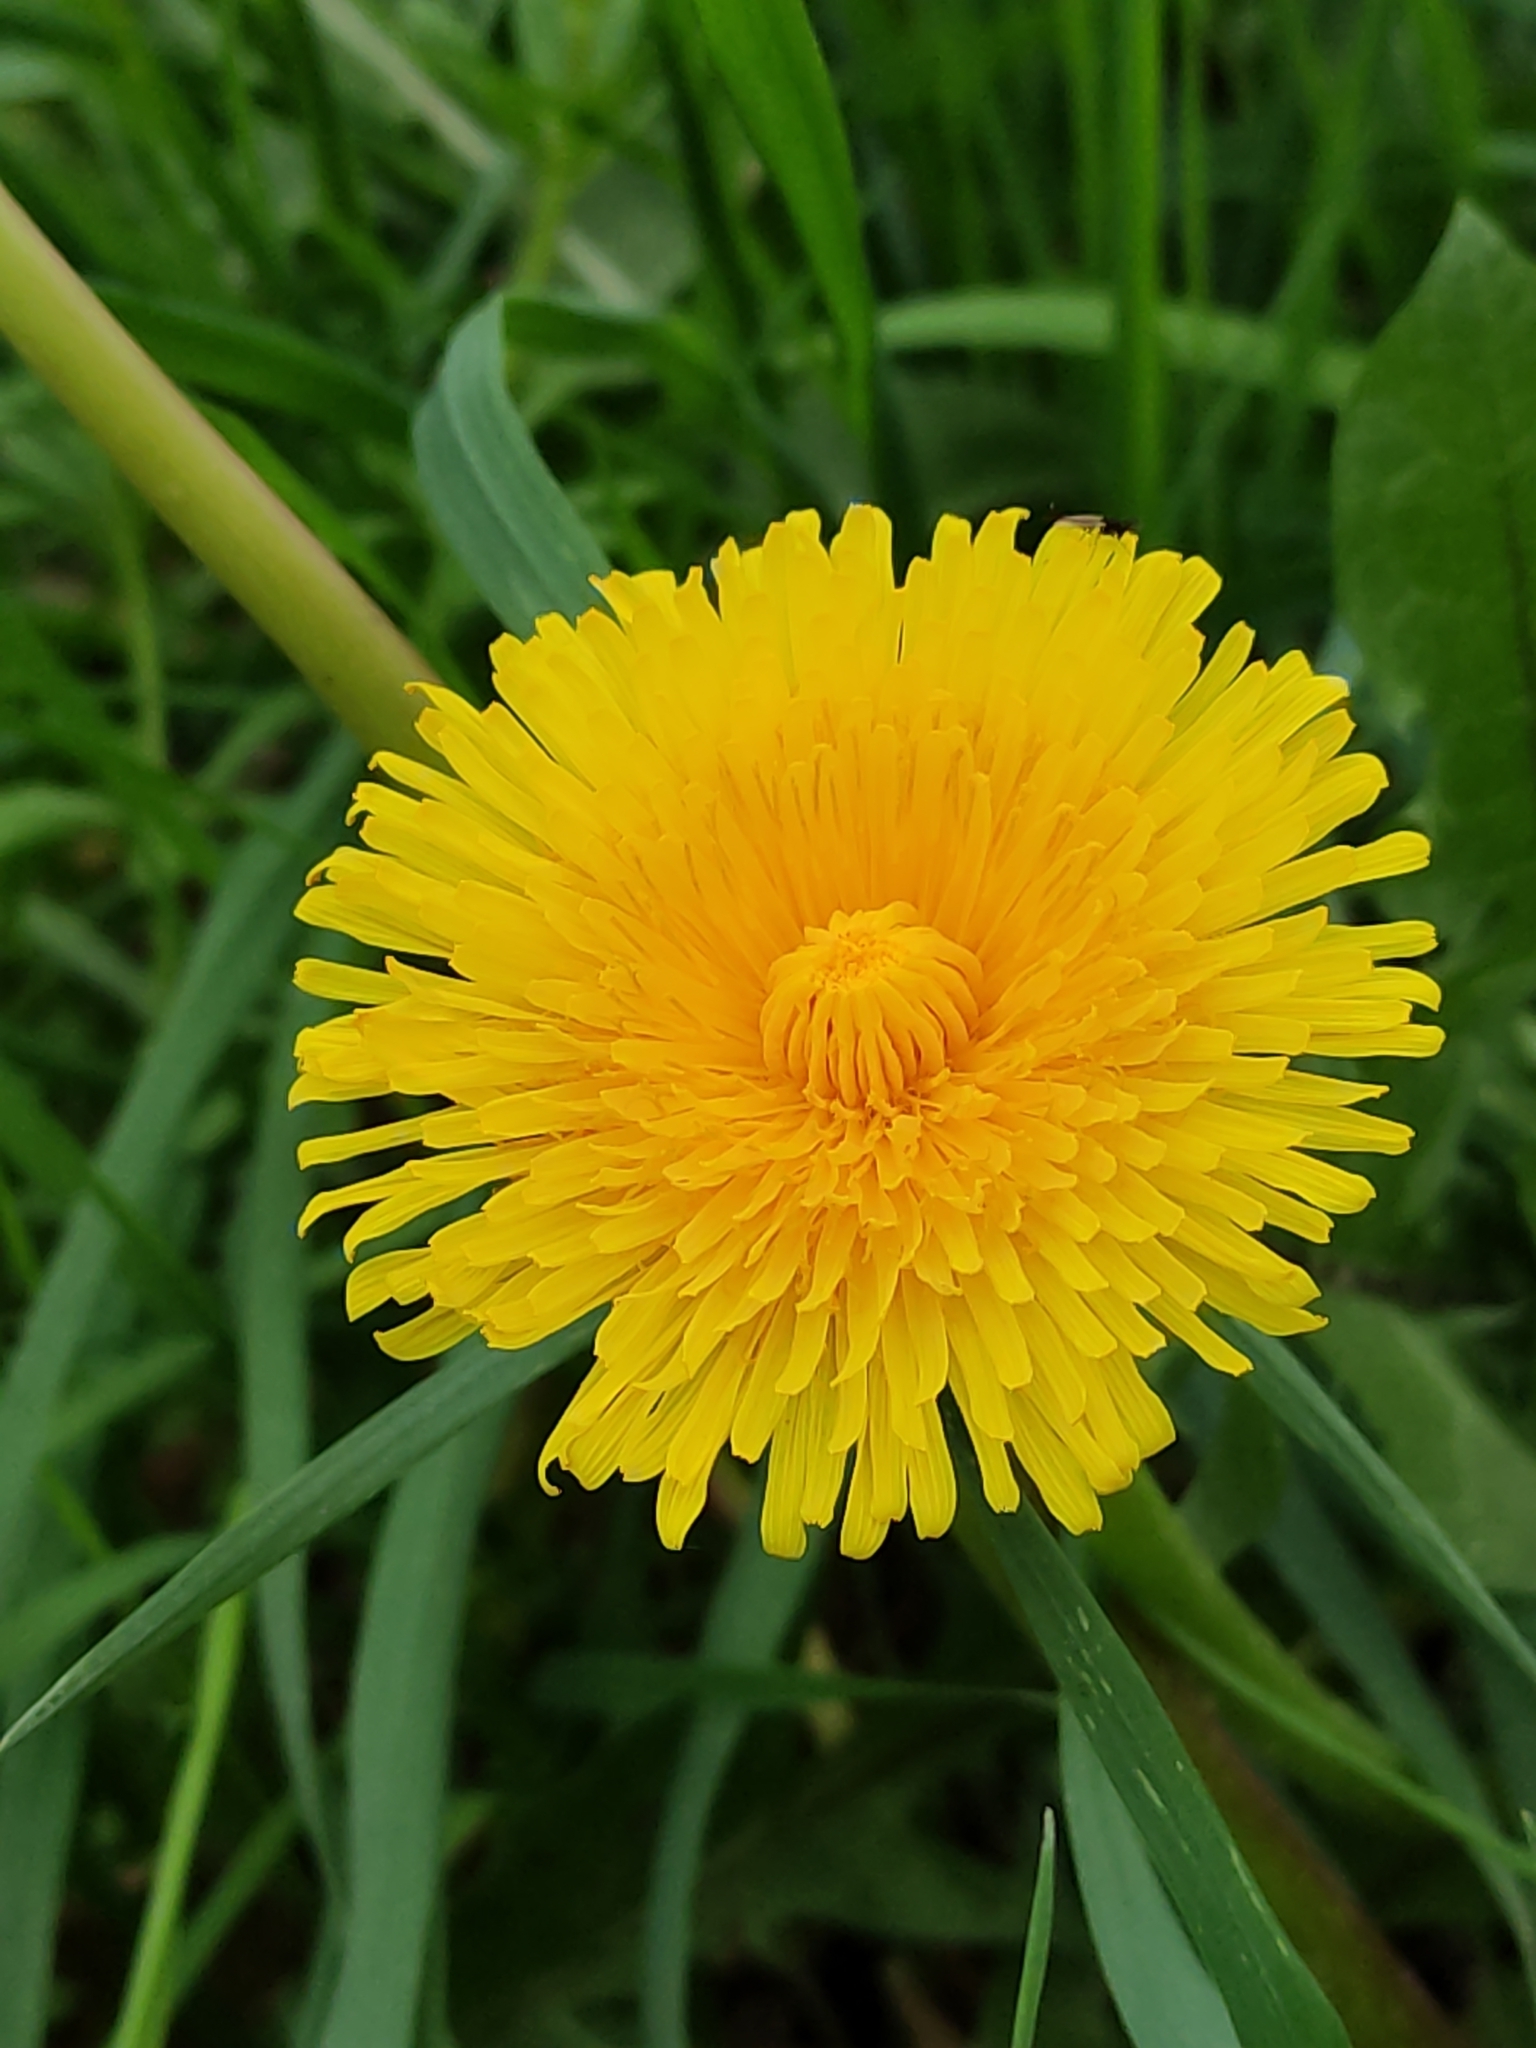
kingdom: Plantae
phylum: Tracheophyta
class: Magnoliopsida
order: Asterales
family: Asteraceae
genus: Taraxacum
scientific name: Taraxacum officinale
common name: Common dandelion
